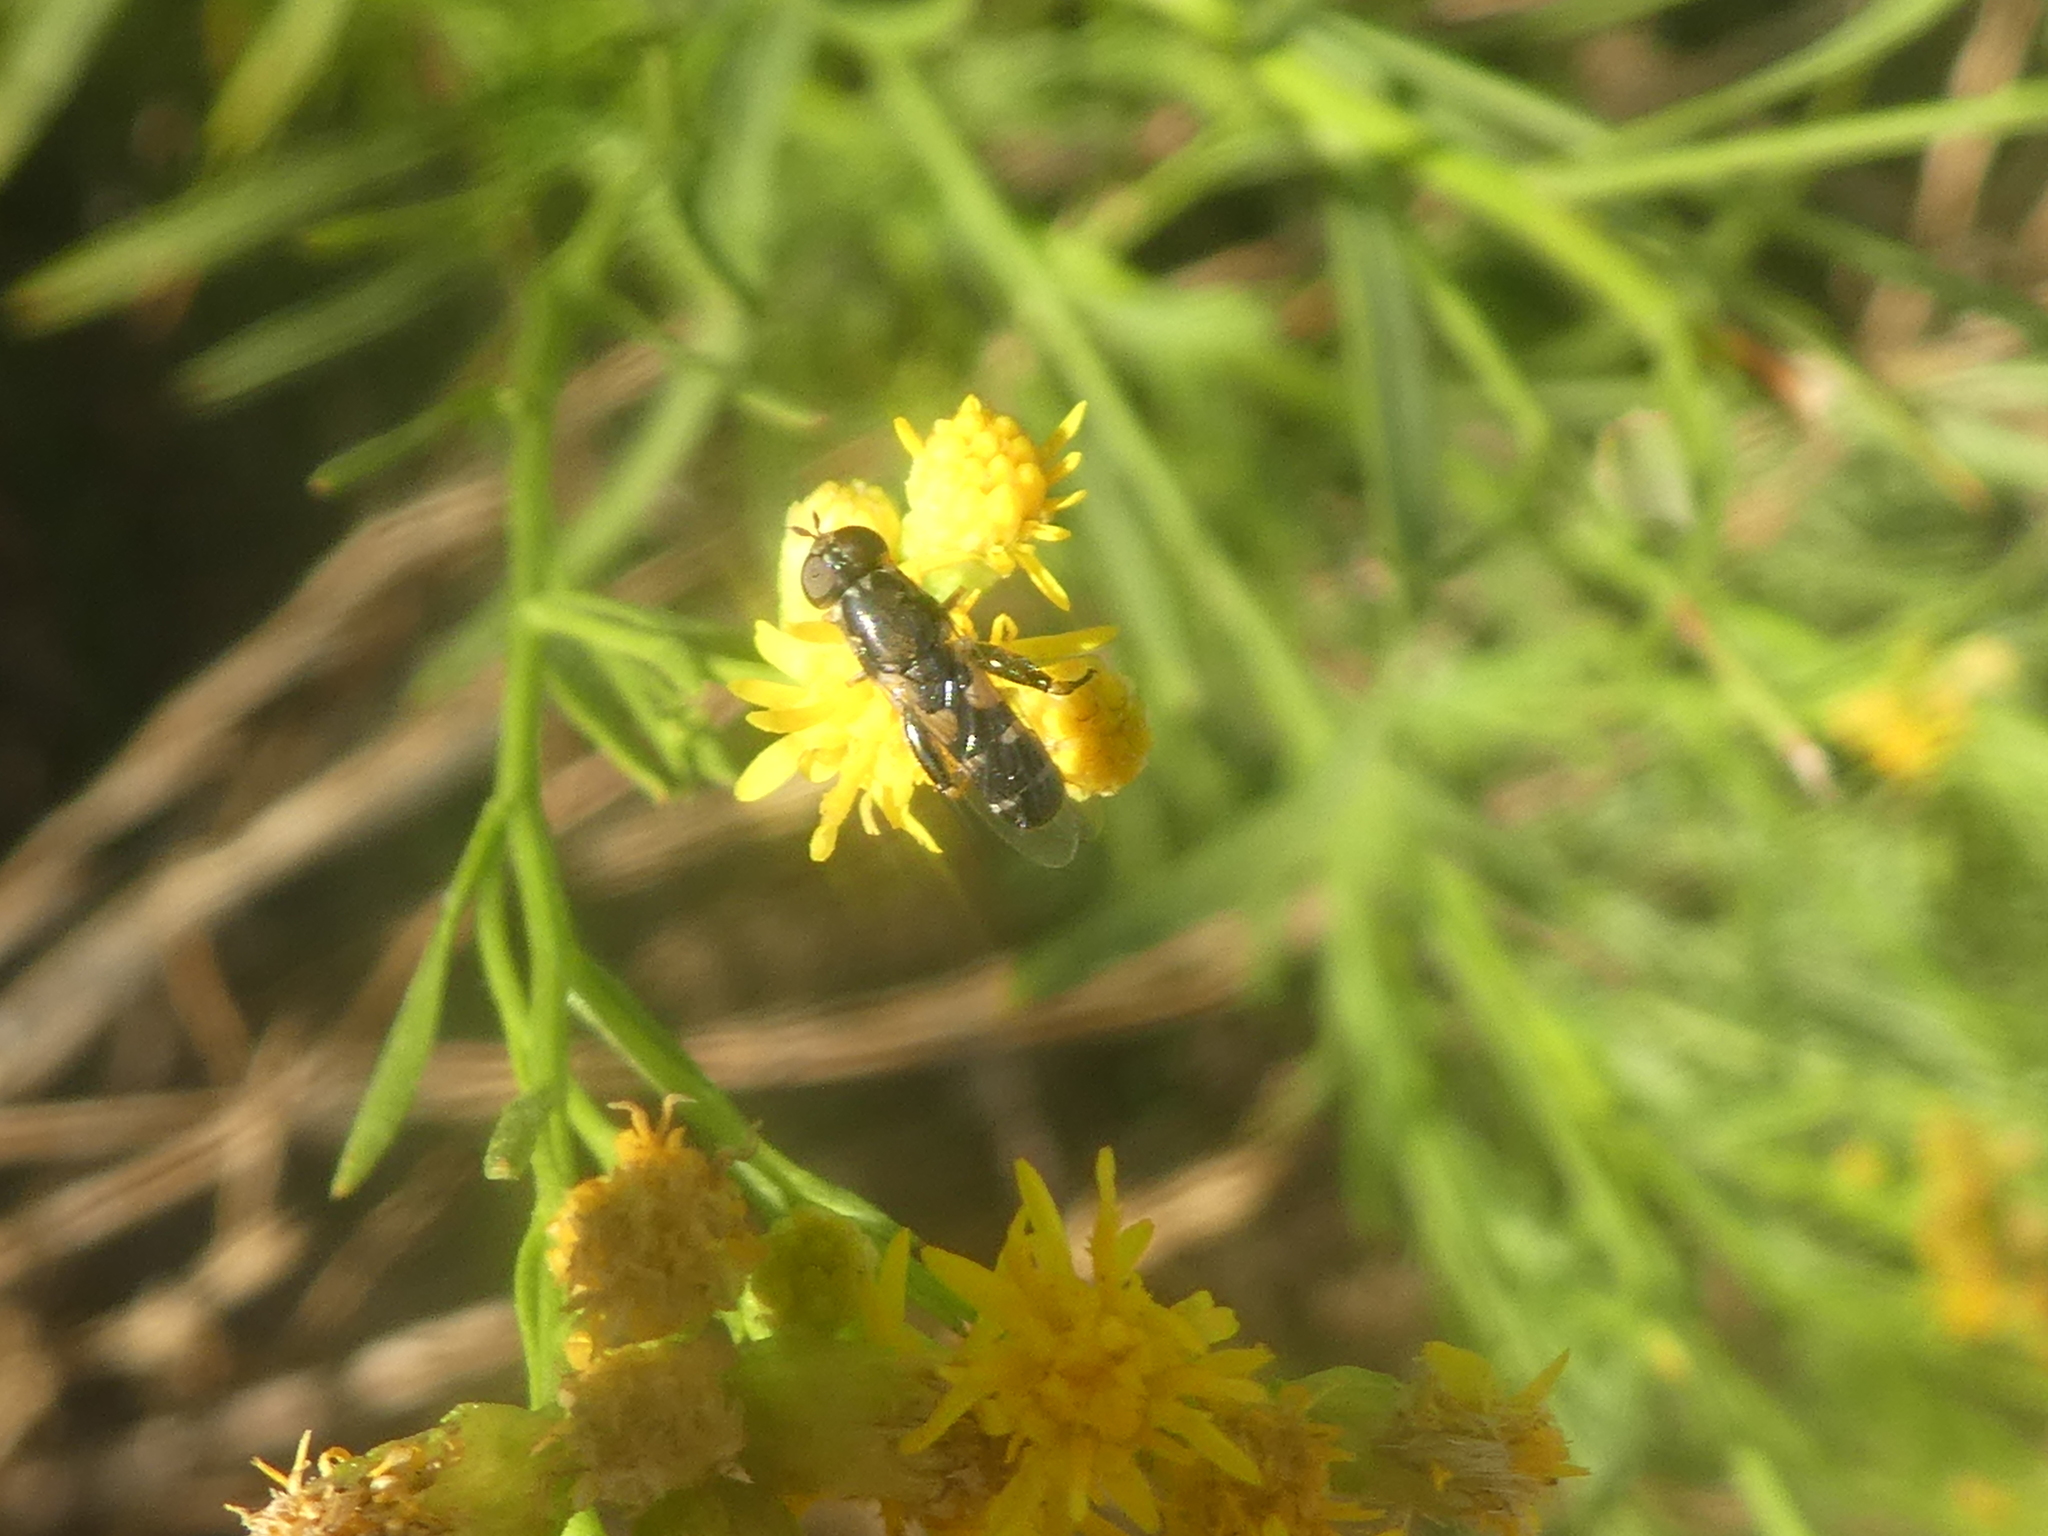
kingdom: Animalia
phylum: Arthropoda
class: Insecta
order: Diptera
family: Syrphidae
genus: Syritta
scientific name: Syritta pipiens
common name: Hover fly
